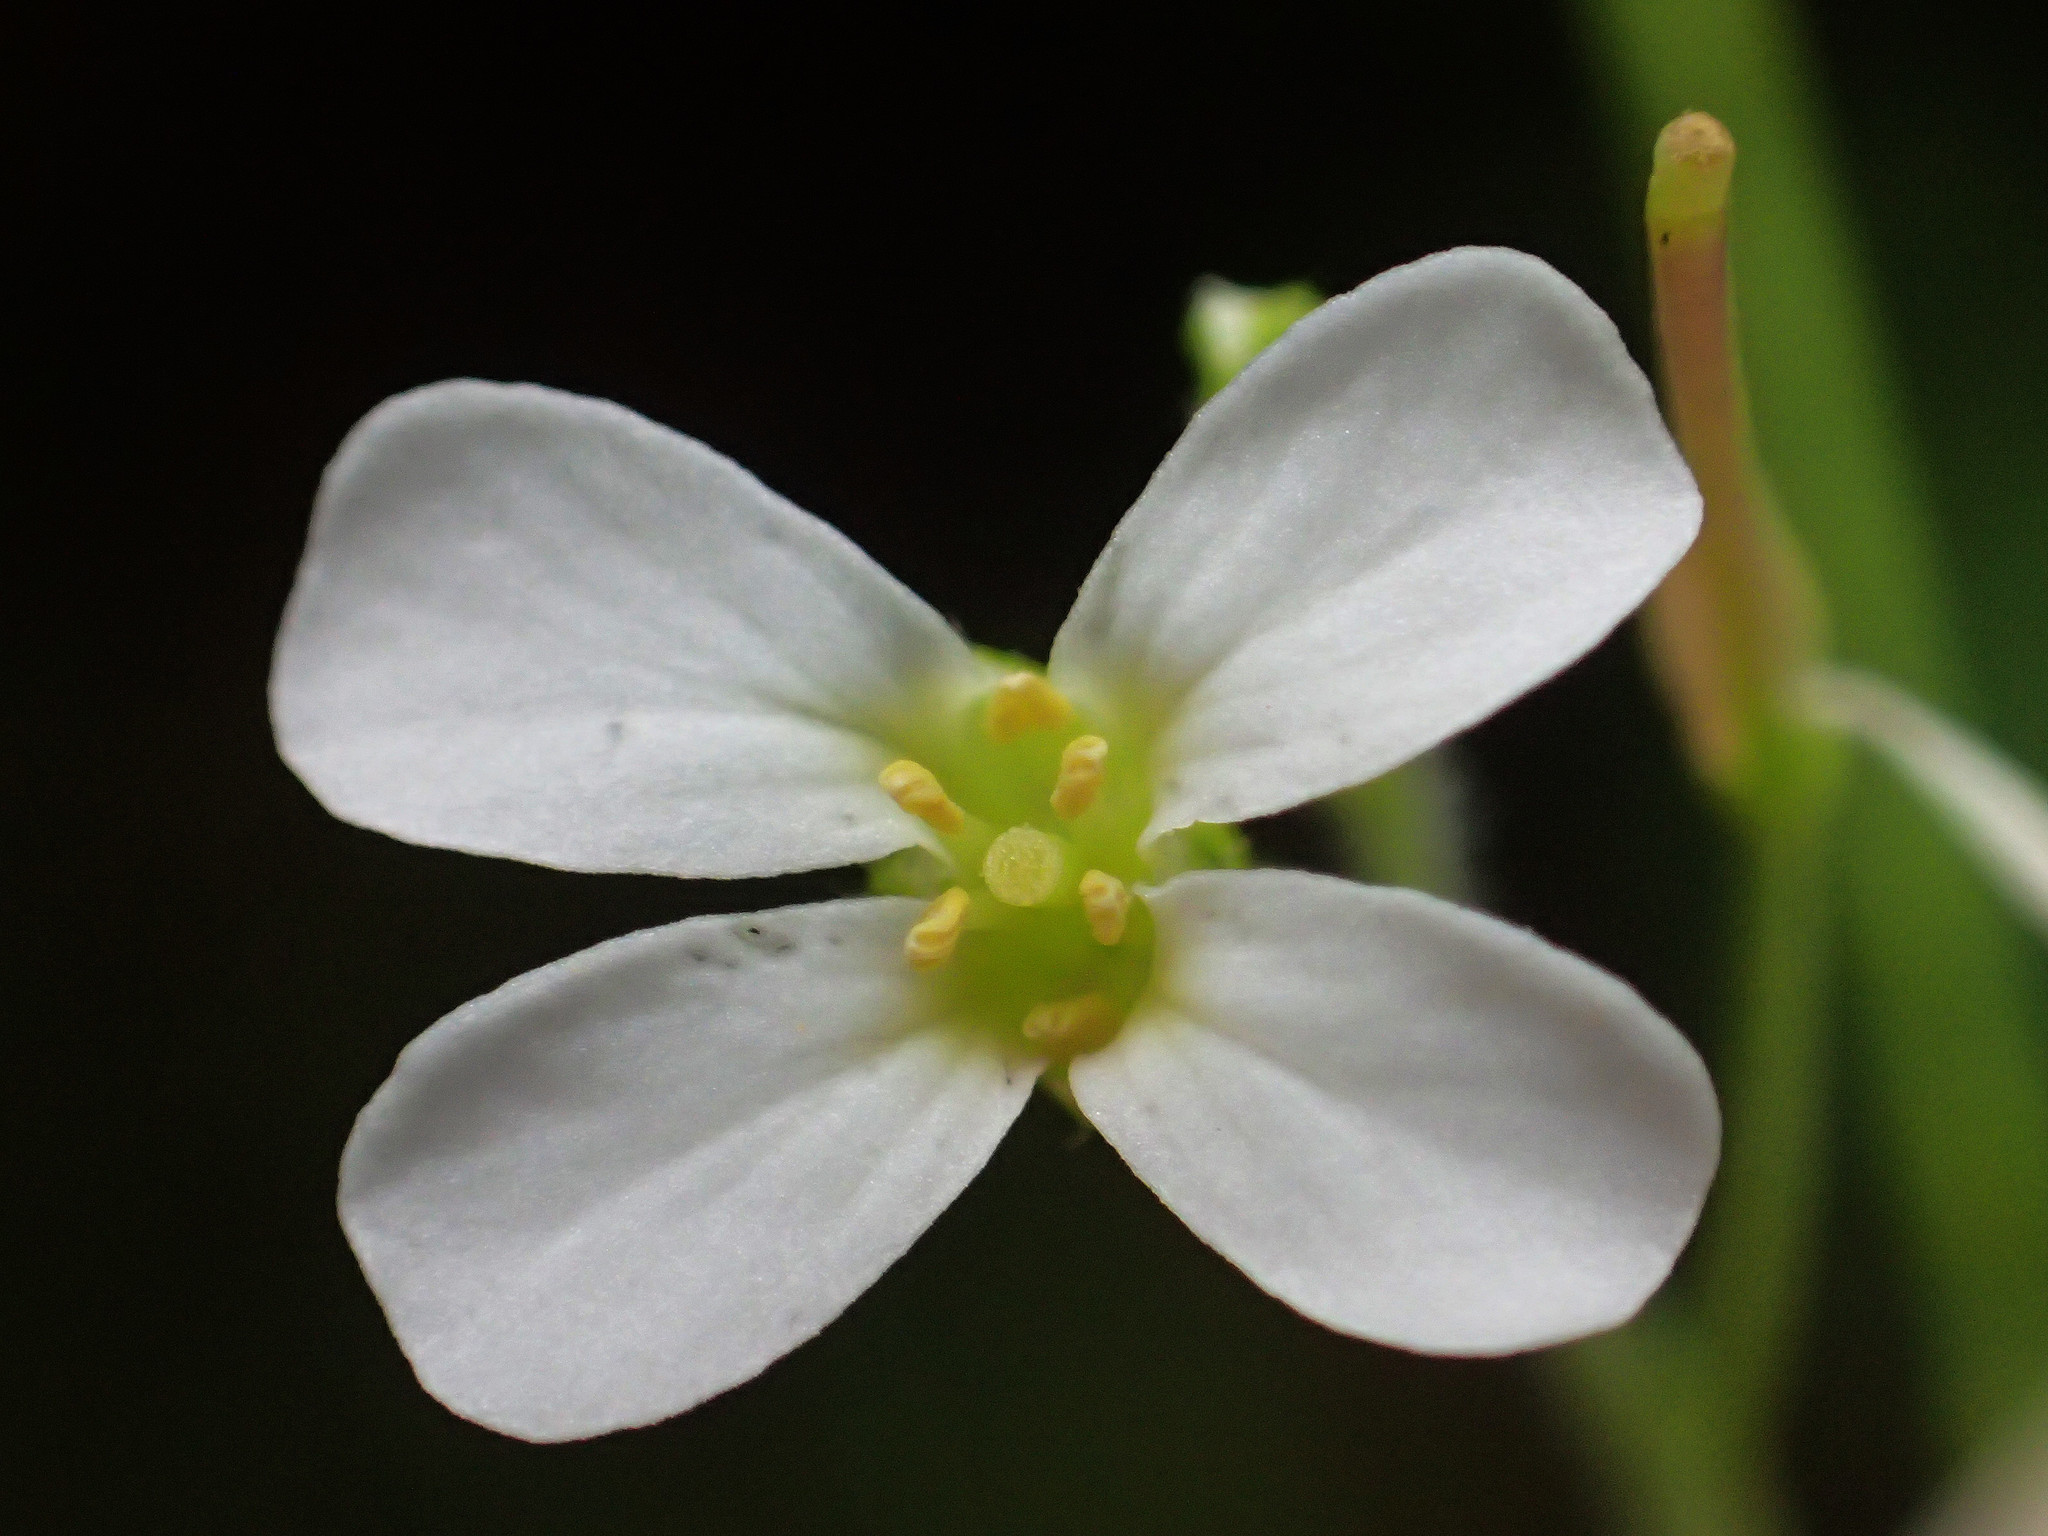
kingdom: Plantae
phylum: Tracheophyta
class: Magnoliopsida
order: Brassicales
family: Brassicaceae
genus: Arabidopsis
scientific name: Arabidopsis lyrata
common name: Lyrate rockcress
